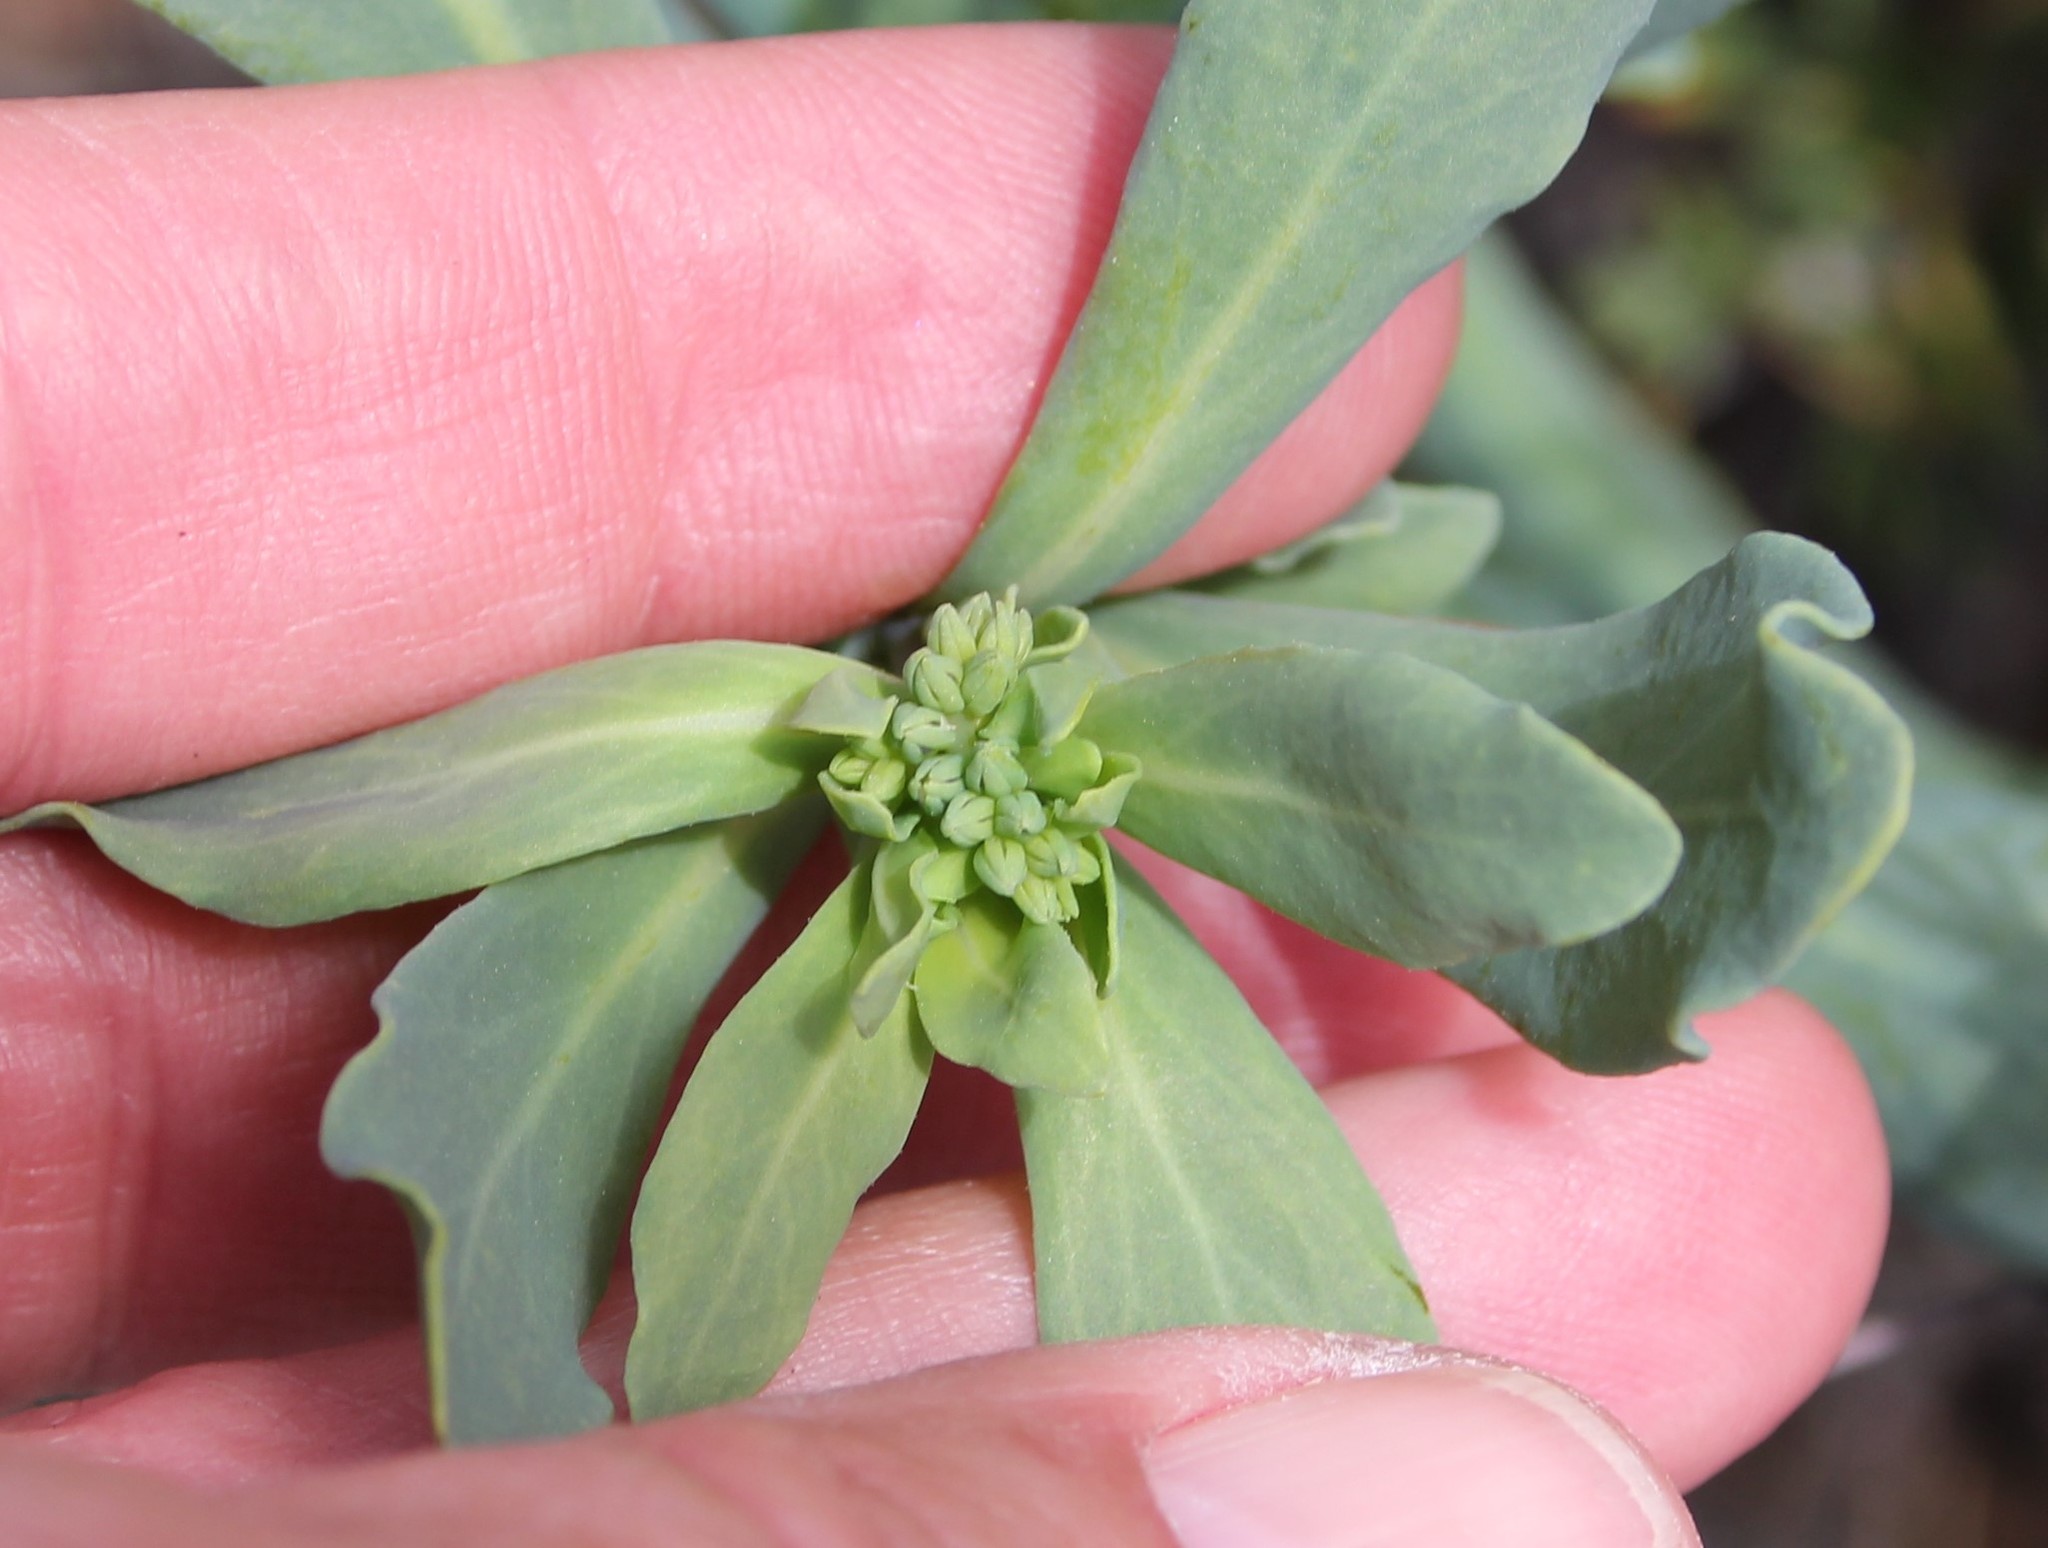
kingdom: Plantae
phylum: Tracheophyta
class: Magnoliopsida
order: Boraginales
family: Heliotropiaceae
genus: Heliotropium
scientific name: Heliotropium curassavicum
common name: Seaside heliotrope
